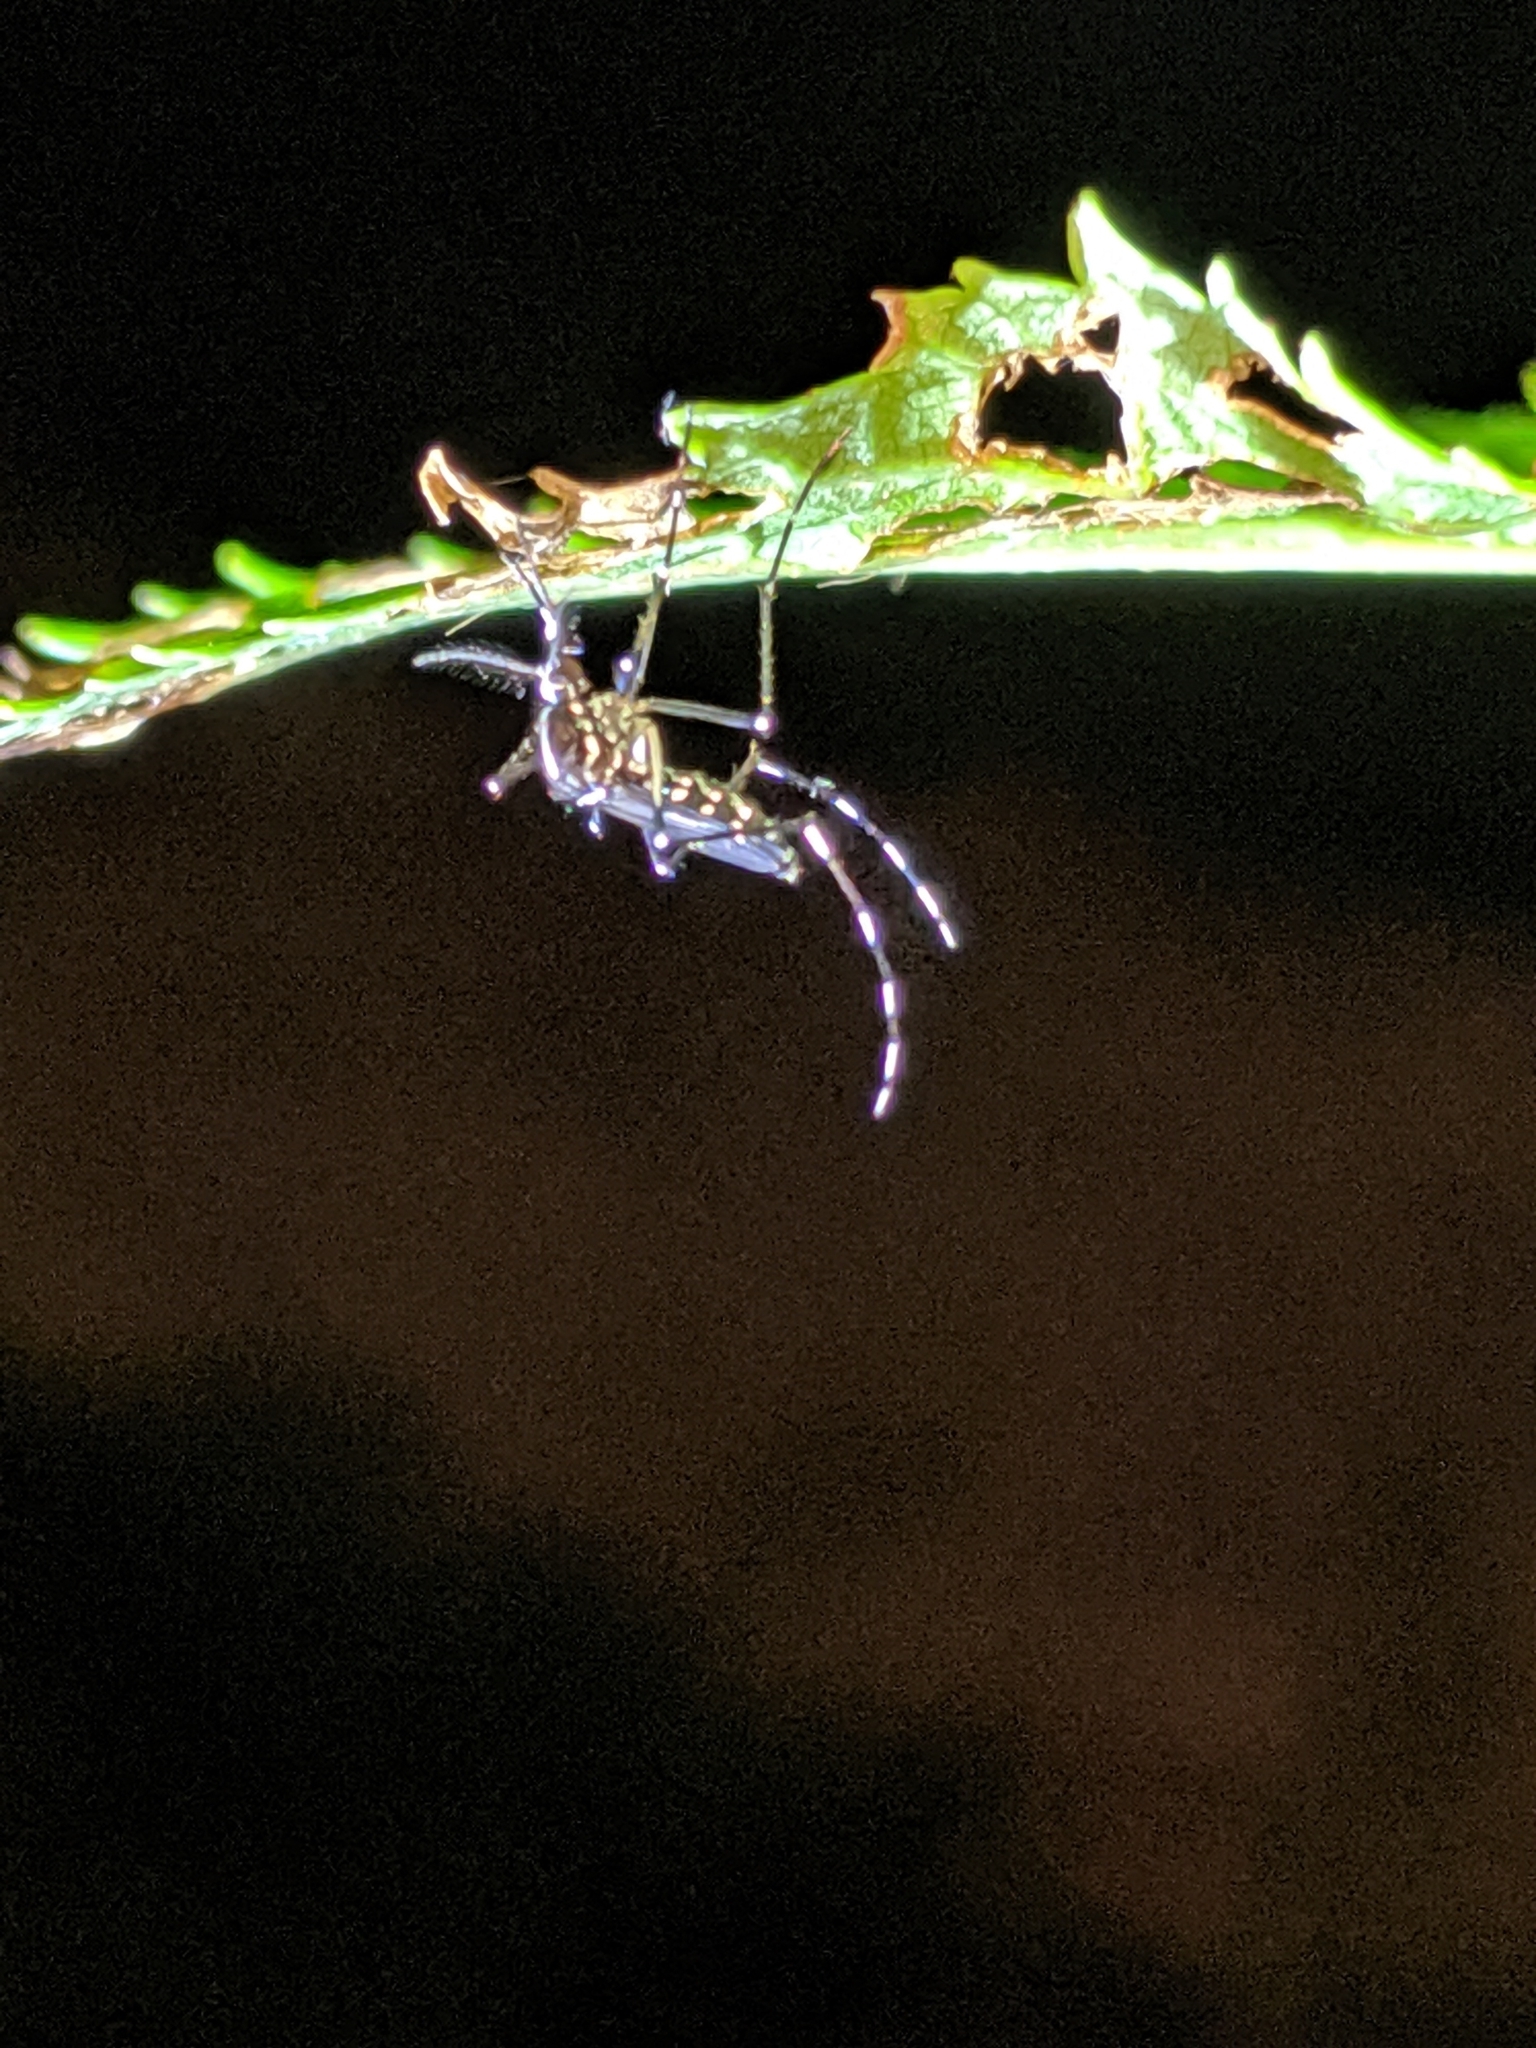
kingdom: Animalia
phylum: Arthropoda
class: Insecta
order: Diptera
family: Culicidae
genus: Aedes
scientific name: Aedes albopictus
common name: Tiger mosquito
